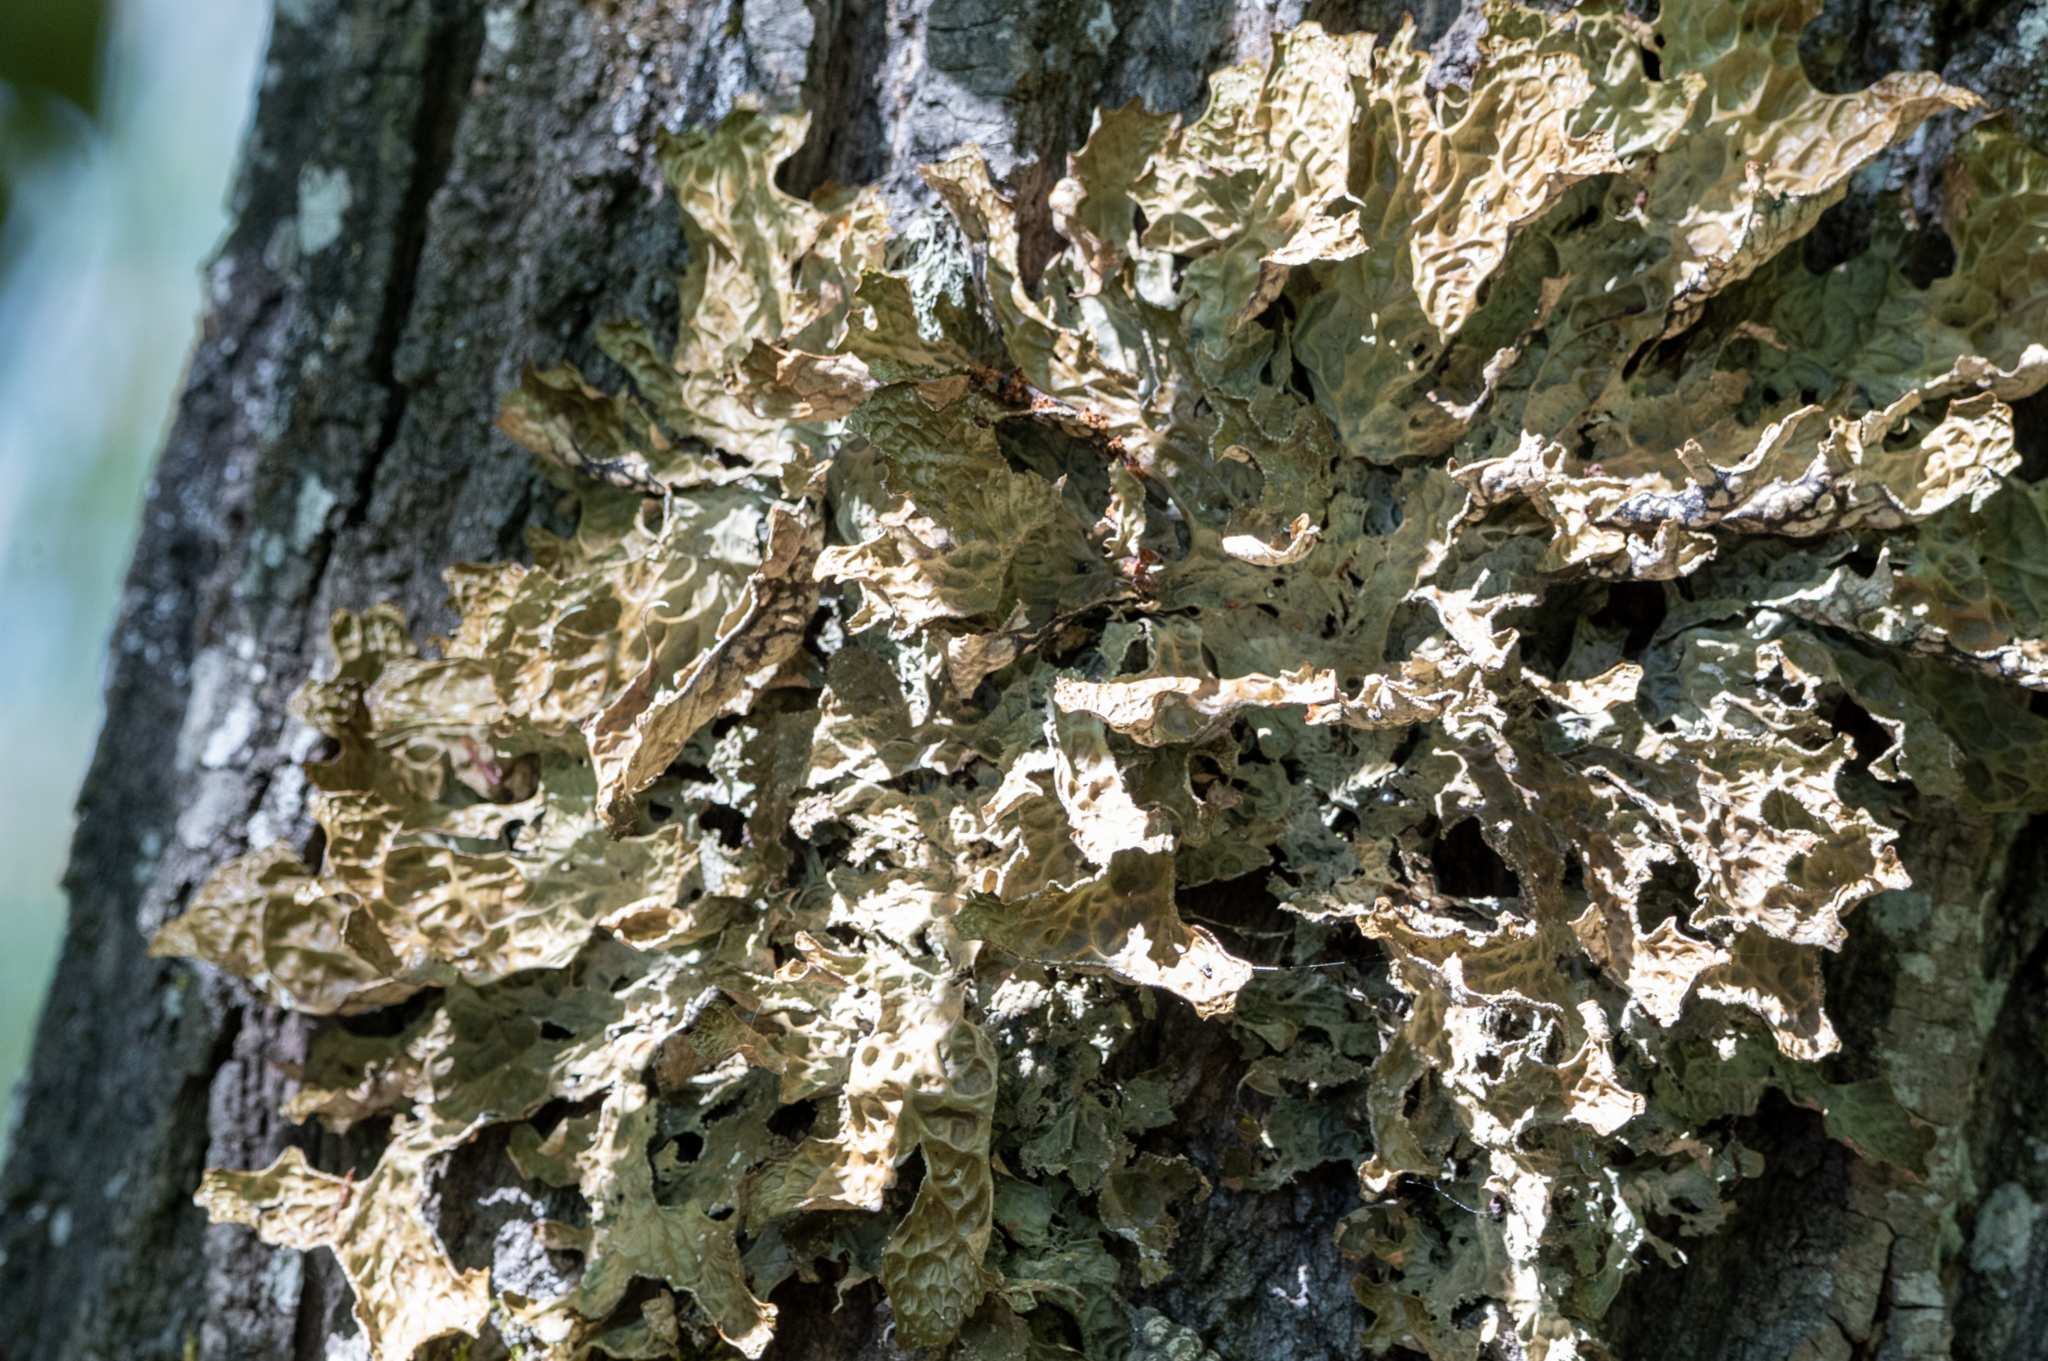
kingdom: Fungi
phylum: Ascomycota
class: Lecanoromycetes
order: Peltigerales
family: Lobariaceae
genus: Lobaria
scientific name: Lobaria pulmonaria
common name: Lungwort
